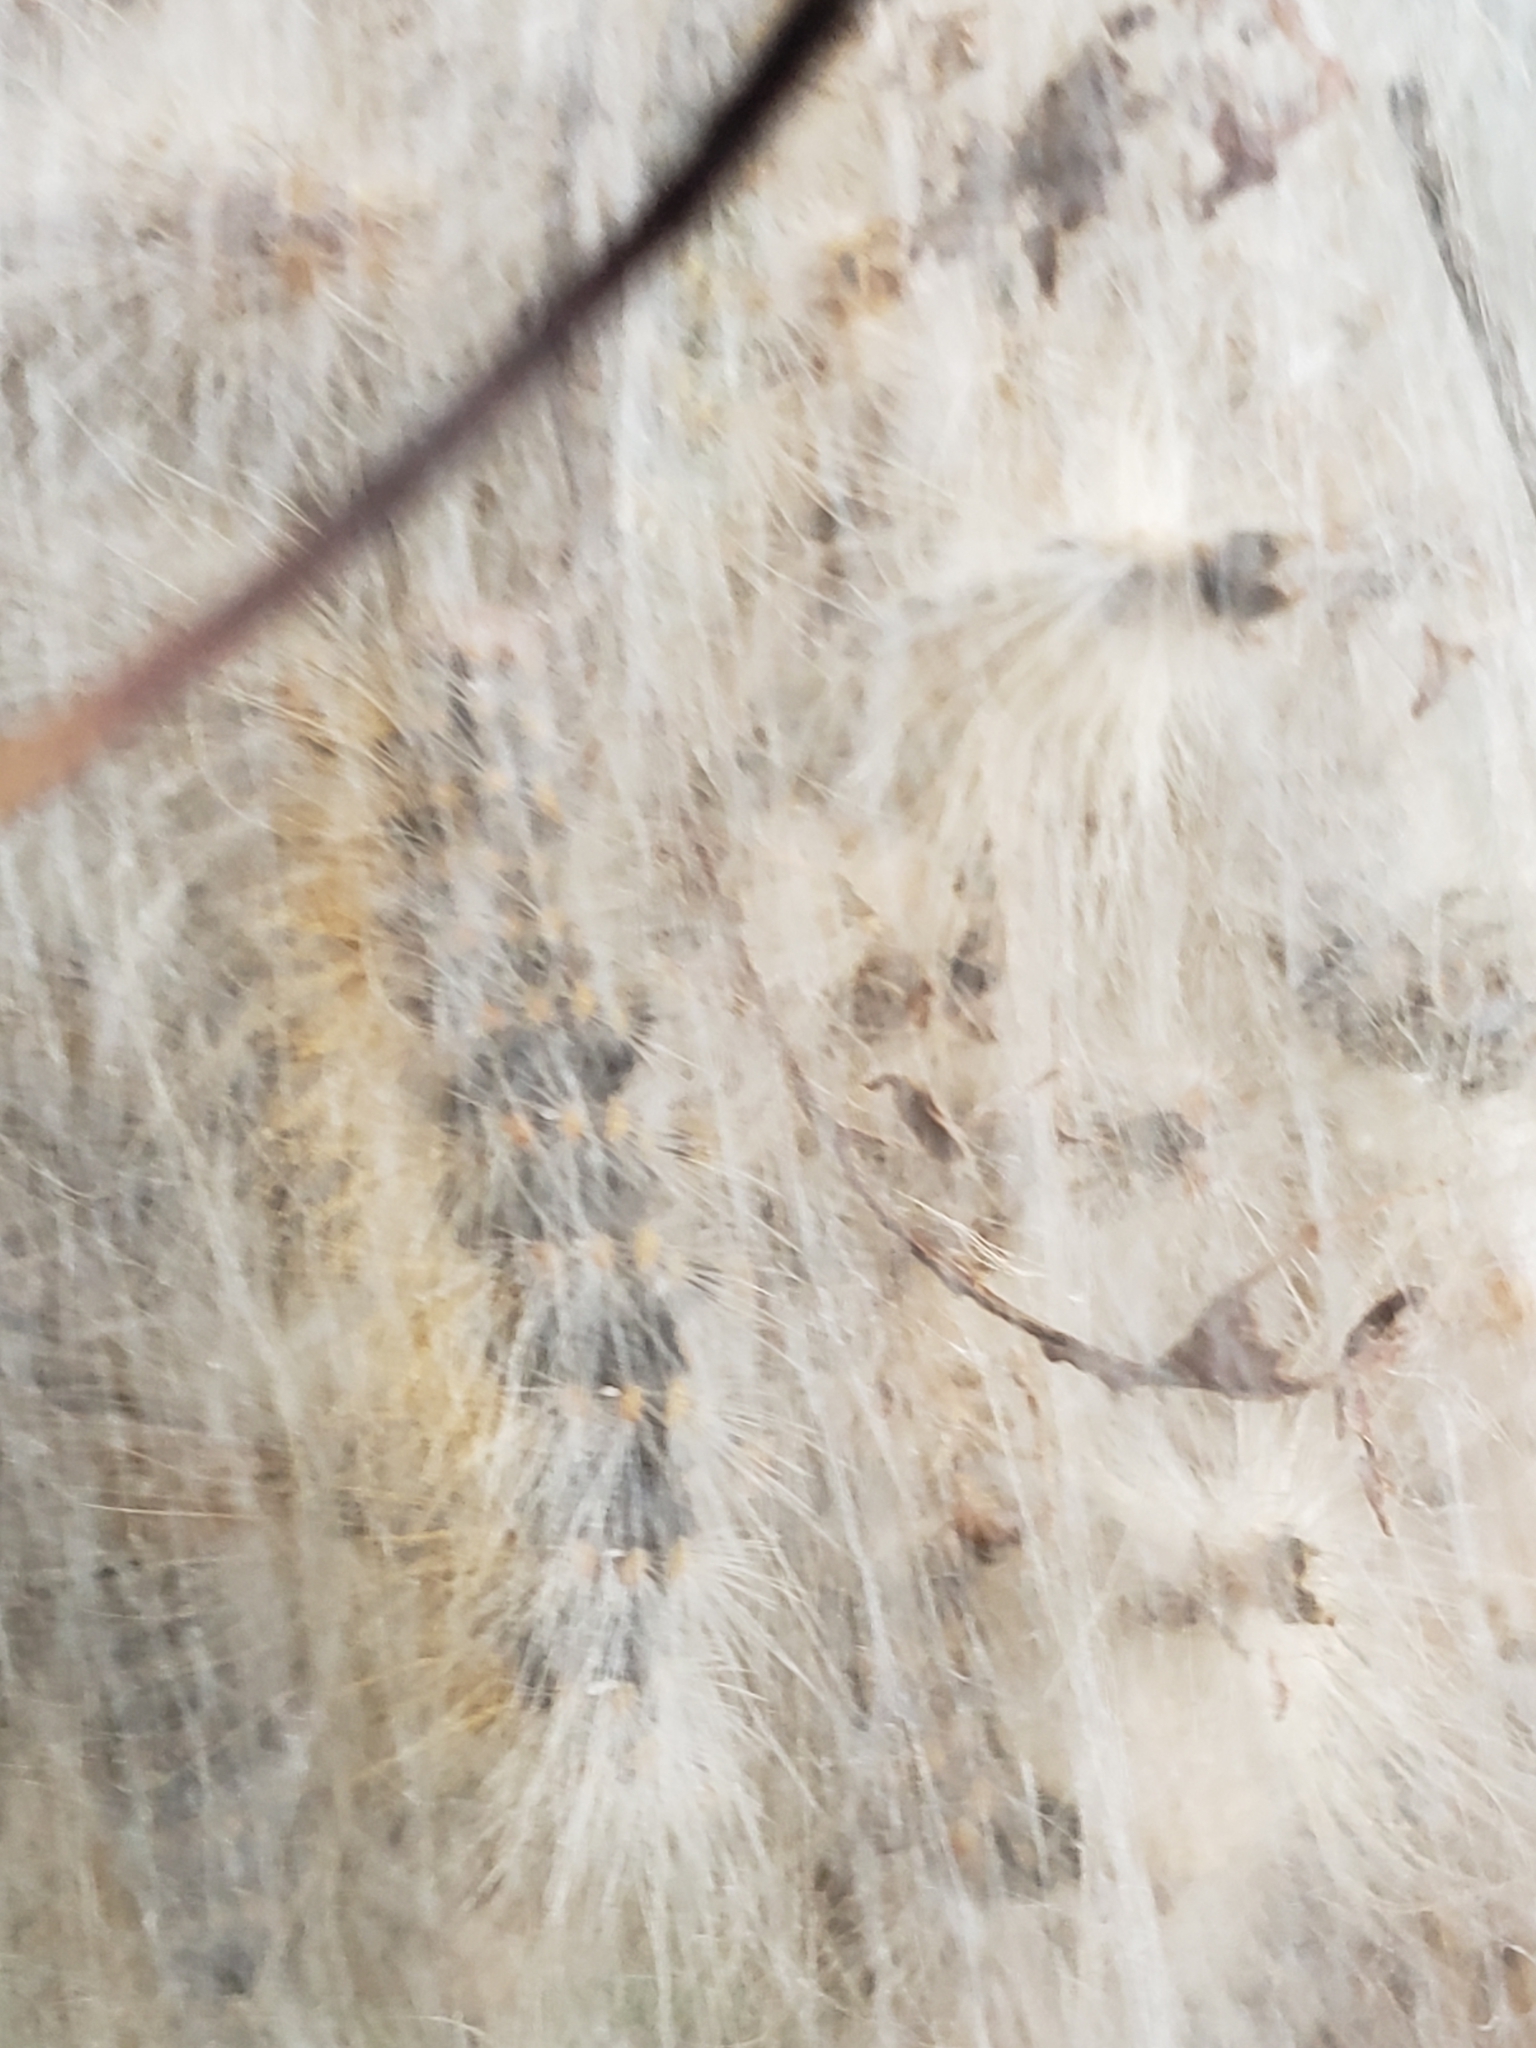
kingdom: Animalia
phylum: Arthropoda
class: Insecta
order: Lepidoptera
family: Erebidae
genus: Hyphantria
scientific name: Hyphantria cunea
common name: American white moth
